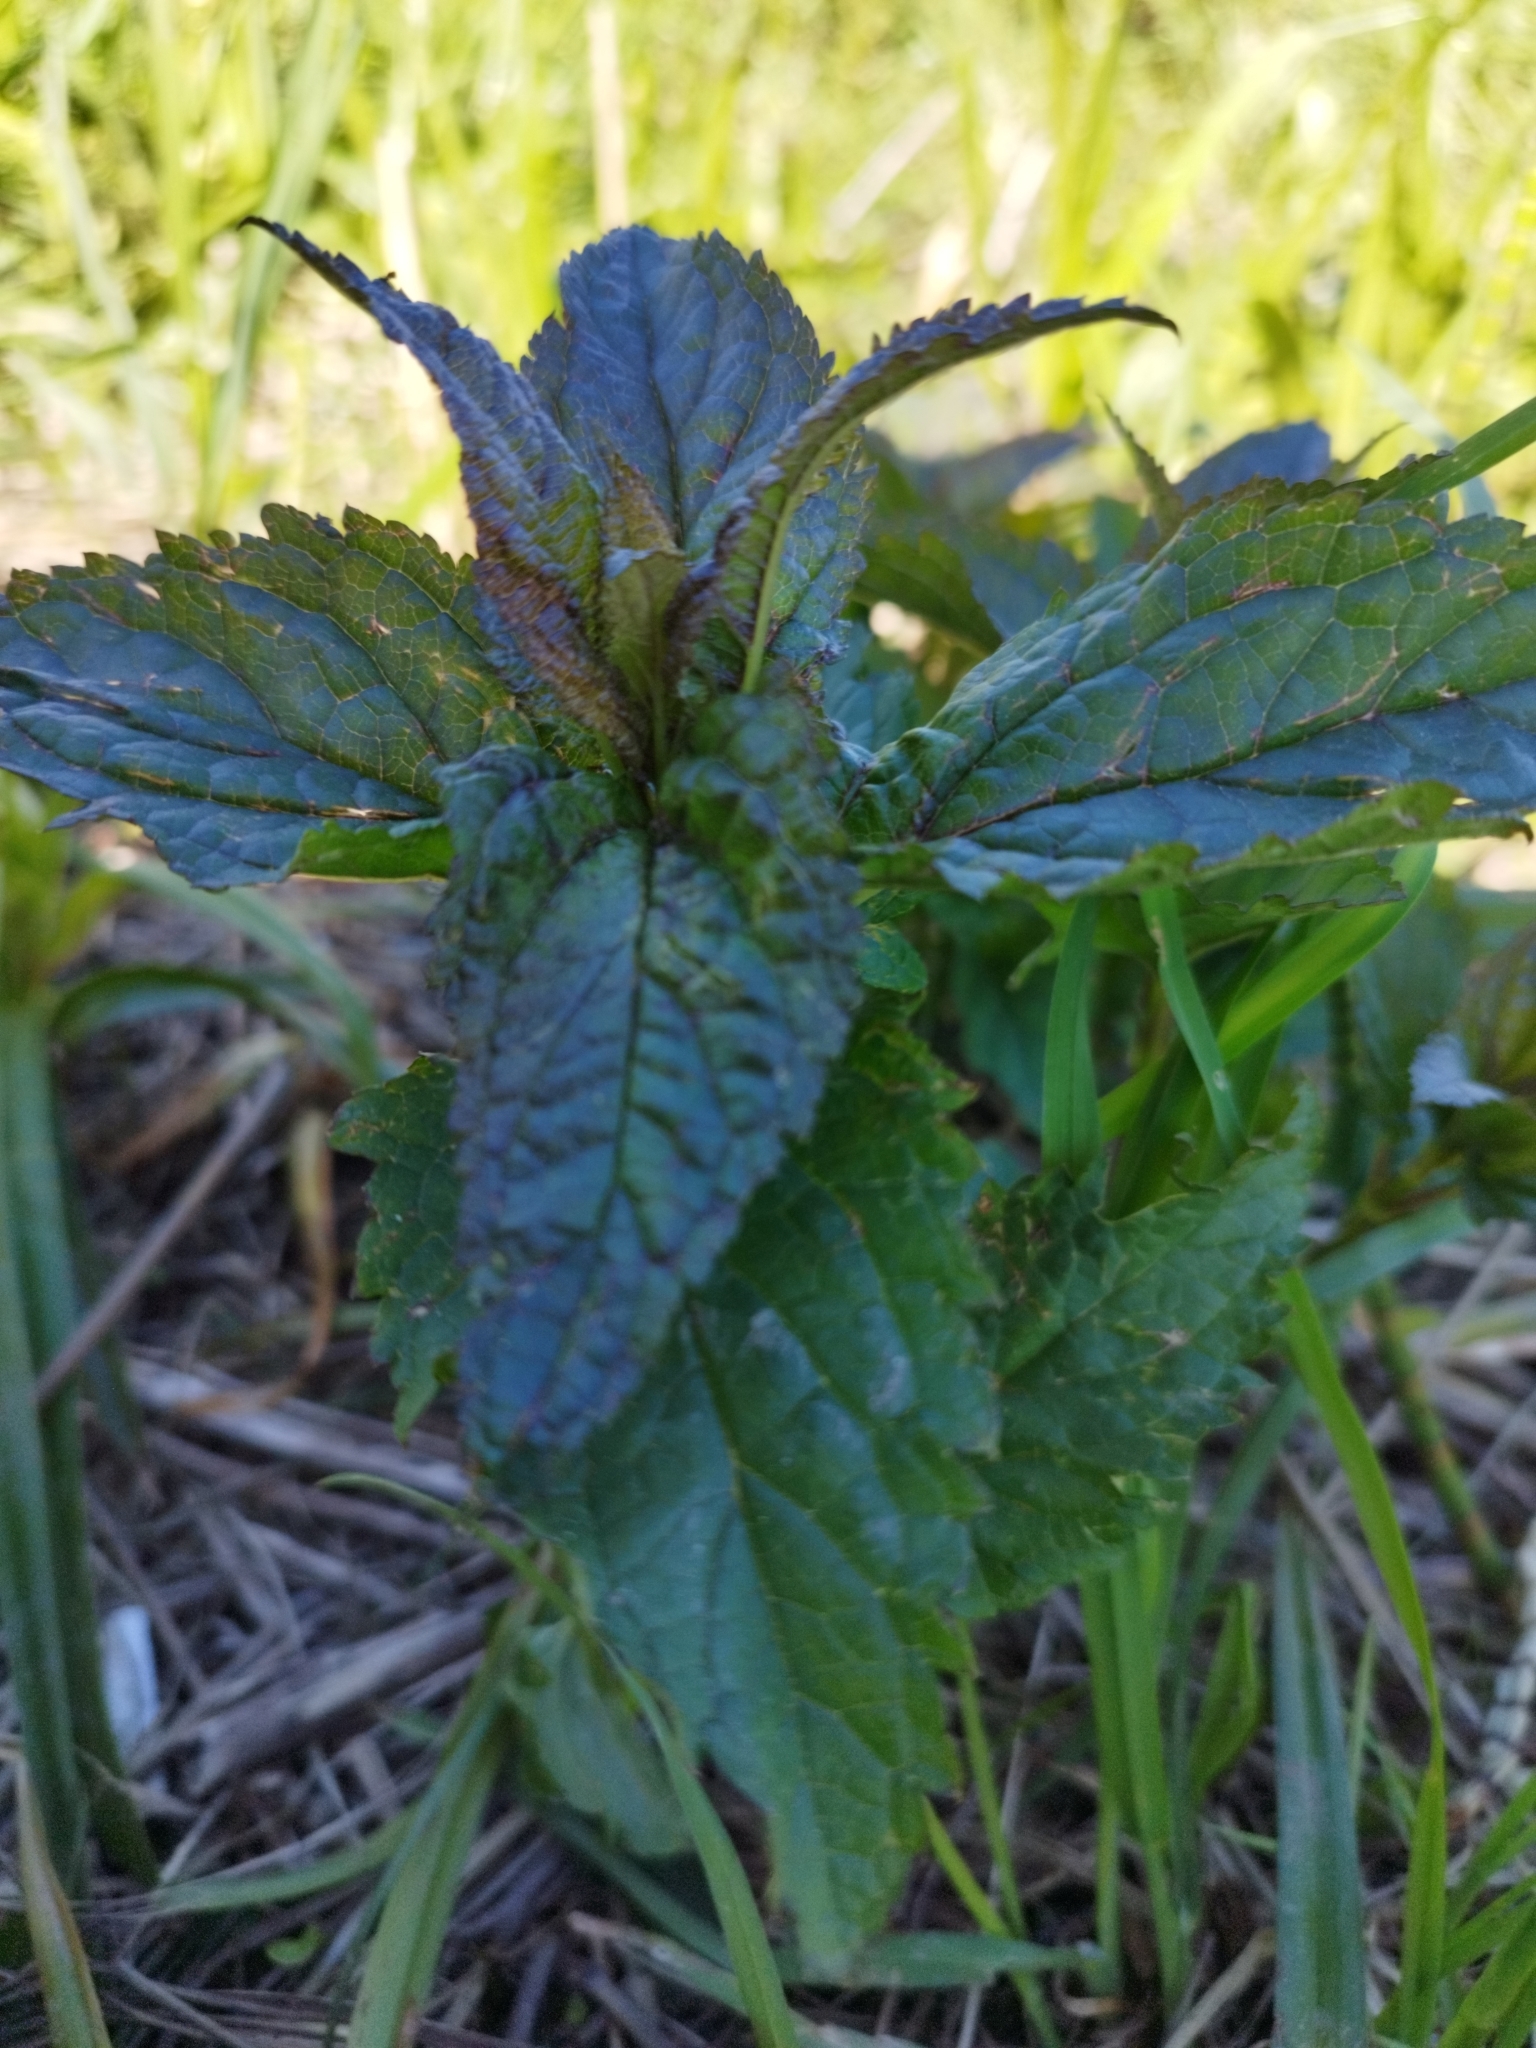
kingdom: Plantae
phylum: Tracheophyta
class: Magnoliopsida
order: Lamiales
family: Scrophulariaceae
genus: Scrophularia
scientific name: Scrophularia nodosa
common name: Common figwort
